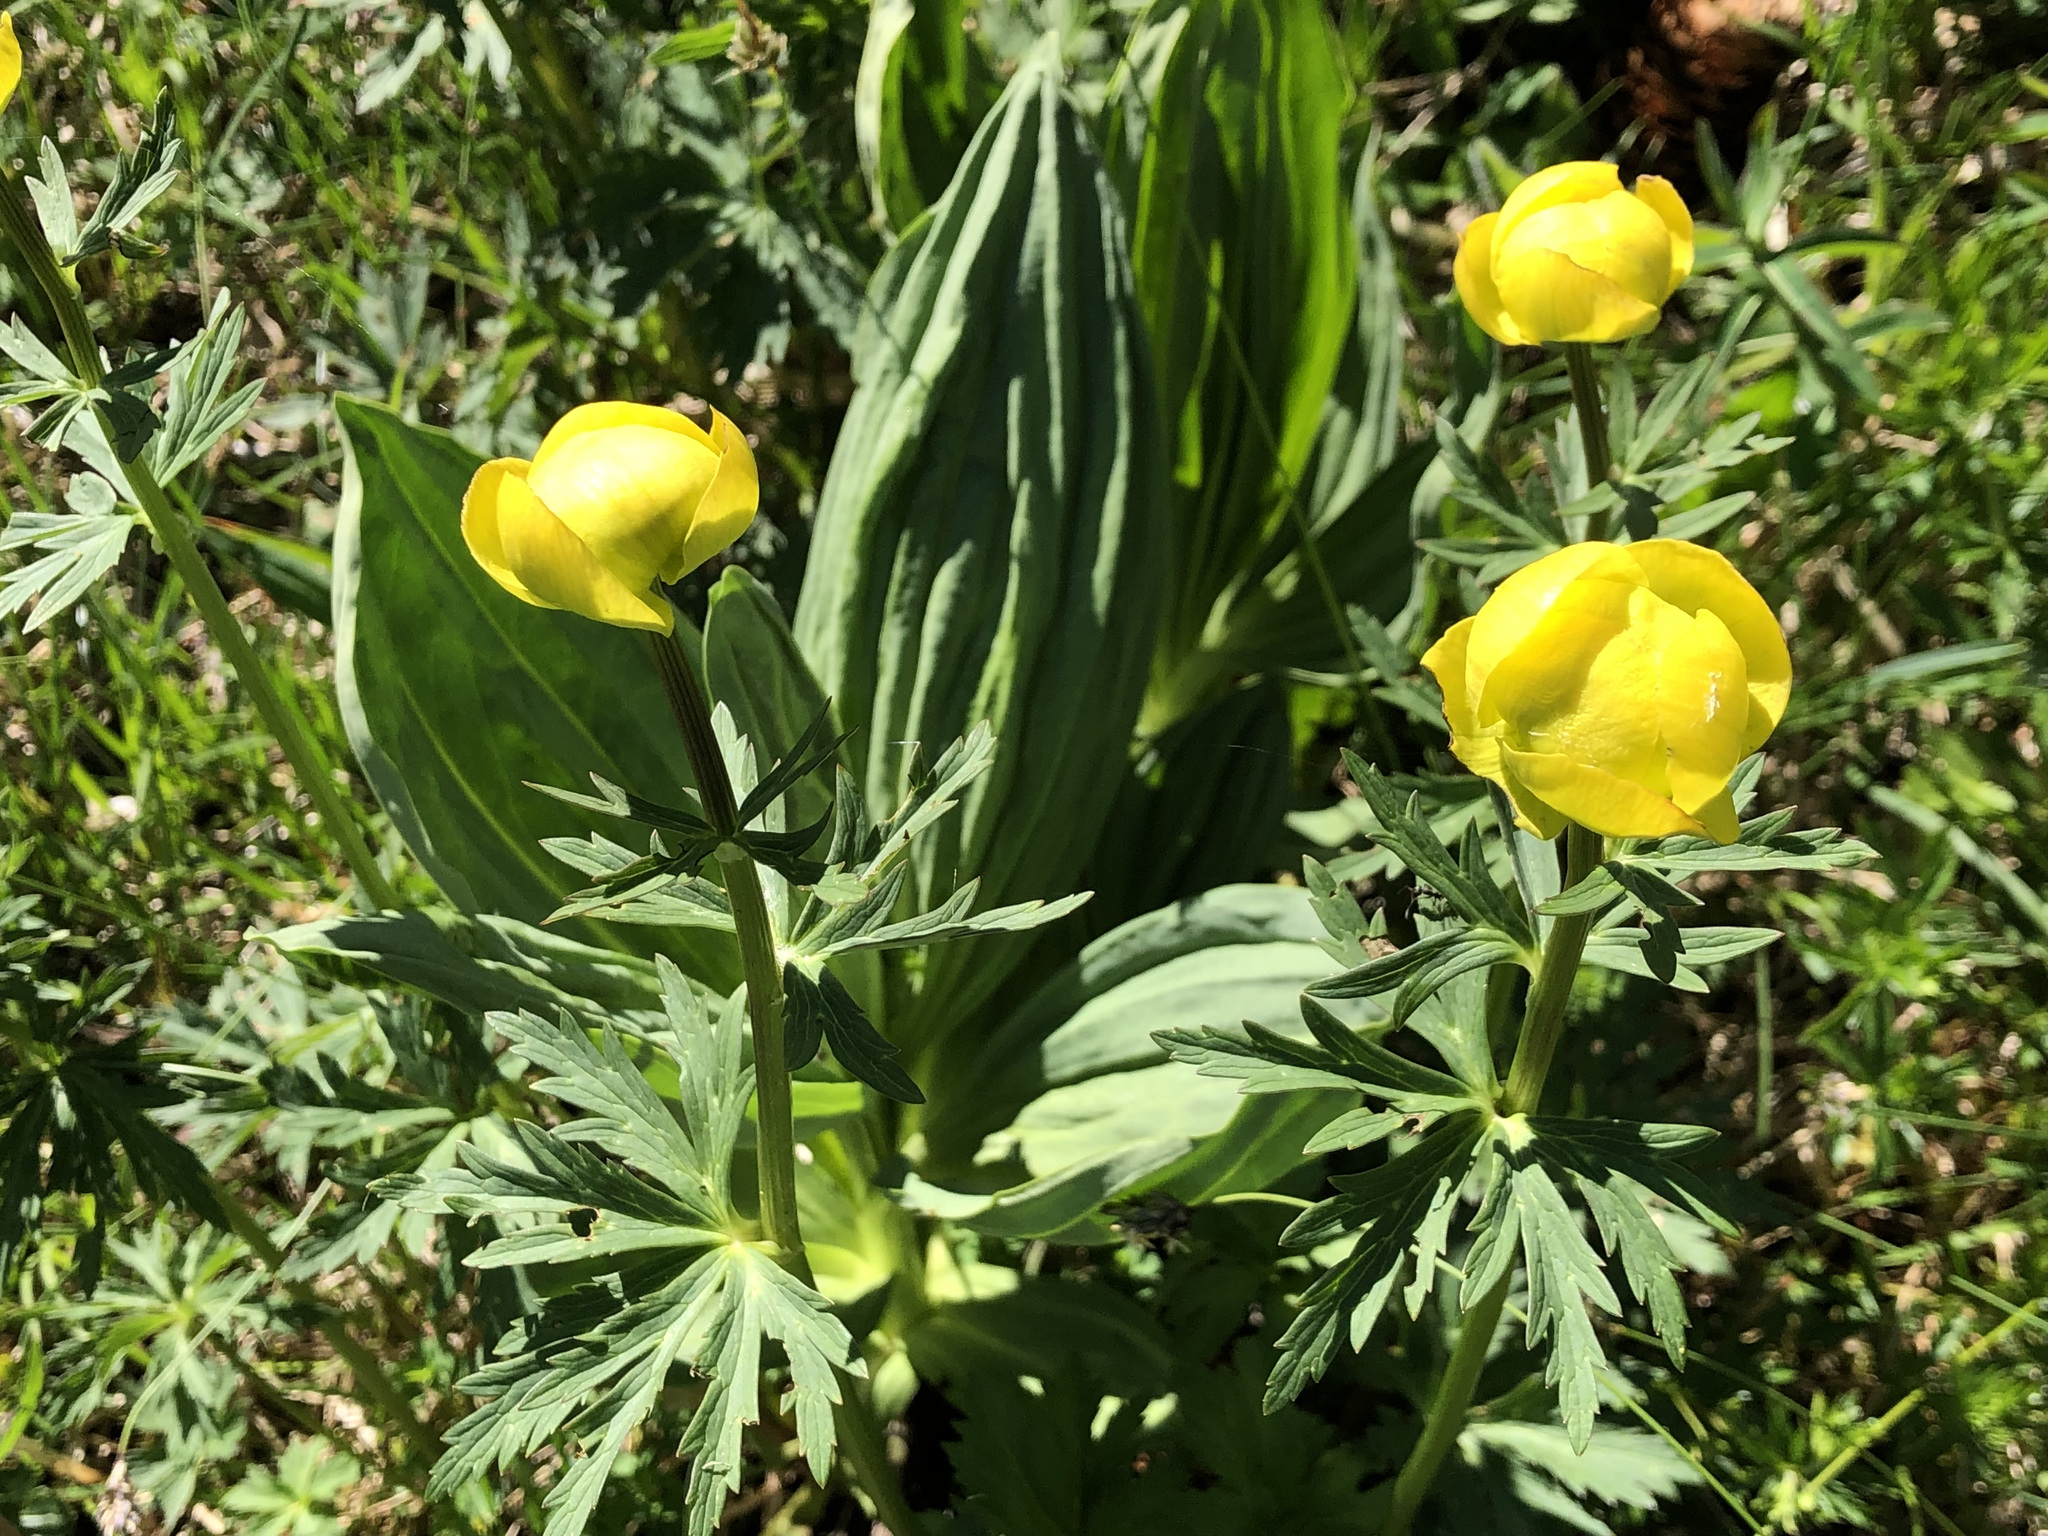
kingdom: Plantae
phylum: Tracheophyta
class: Magnoliopsida
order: Ranunculales
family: Ranunculaceae
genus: Trollius
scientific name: Trollius europaeus
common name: European globeflower
